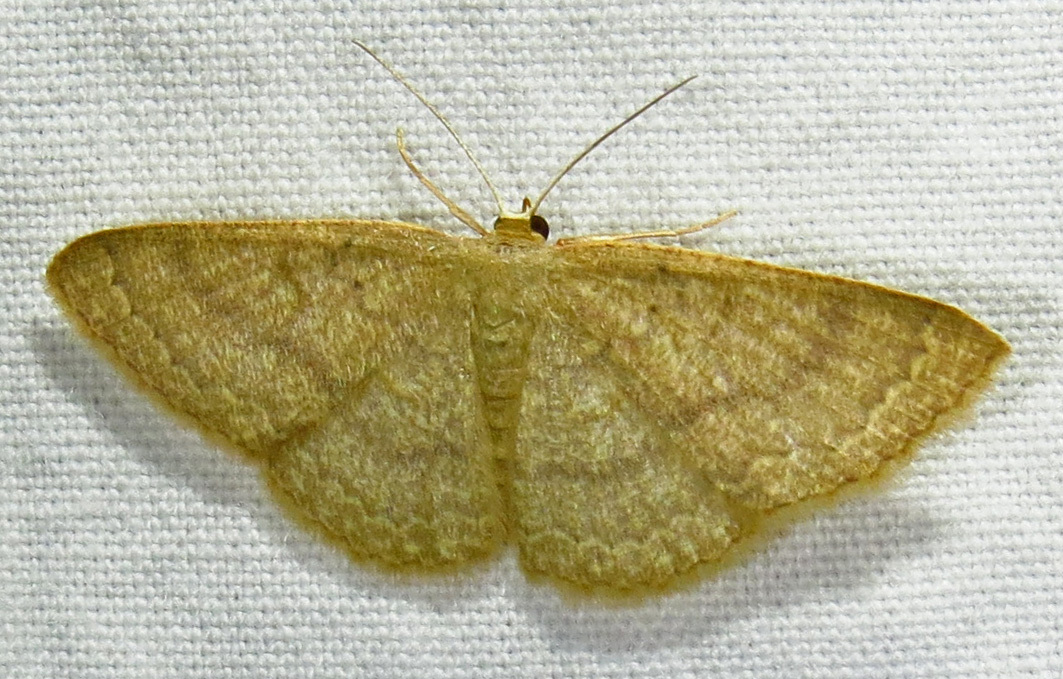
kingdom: Animalia
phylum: Arthropoda
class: Insecta
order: Lepidoptera
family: Geometridae
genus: Pleuroprucha
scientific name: Pleuroprucha insulsaria
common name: Common tan wave
